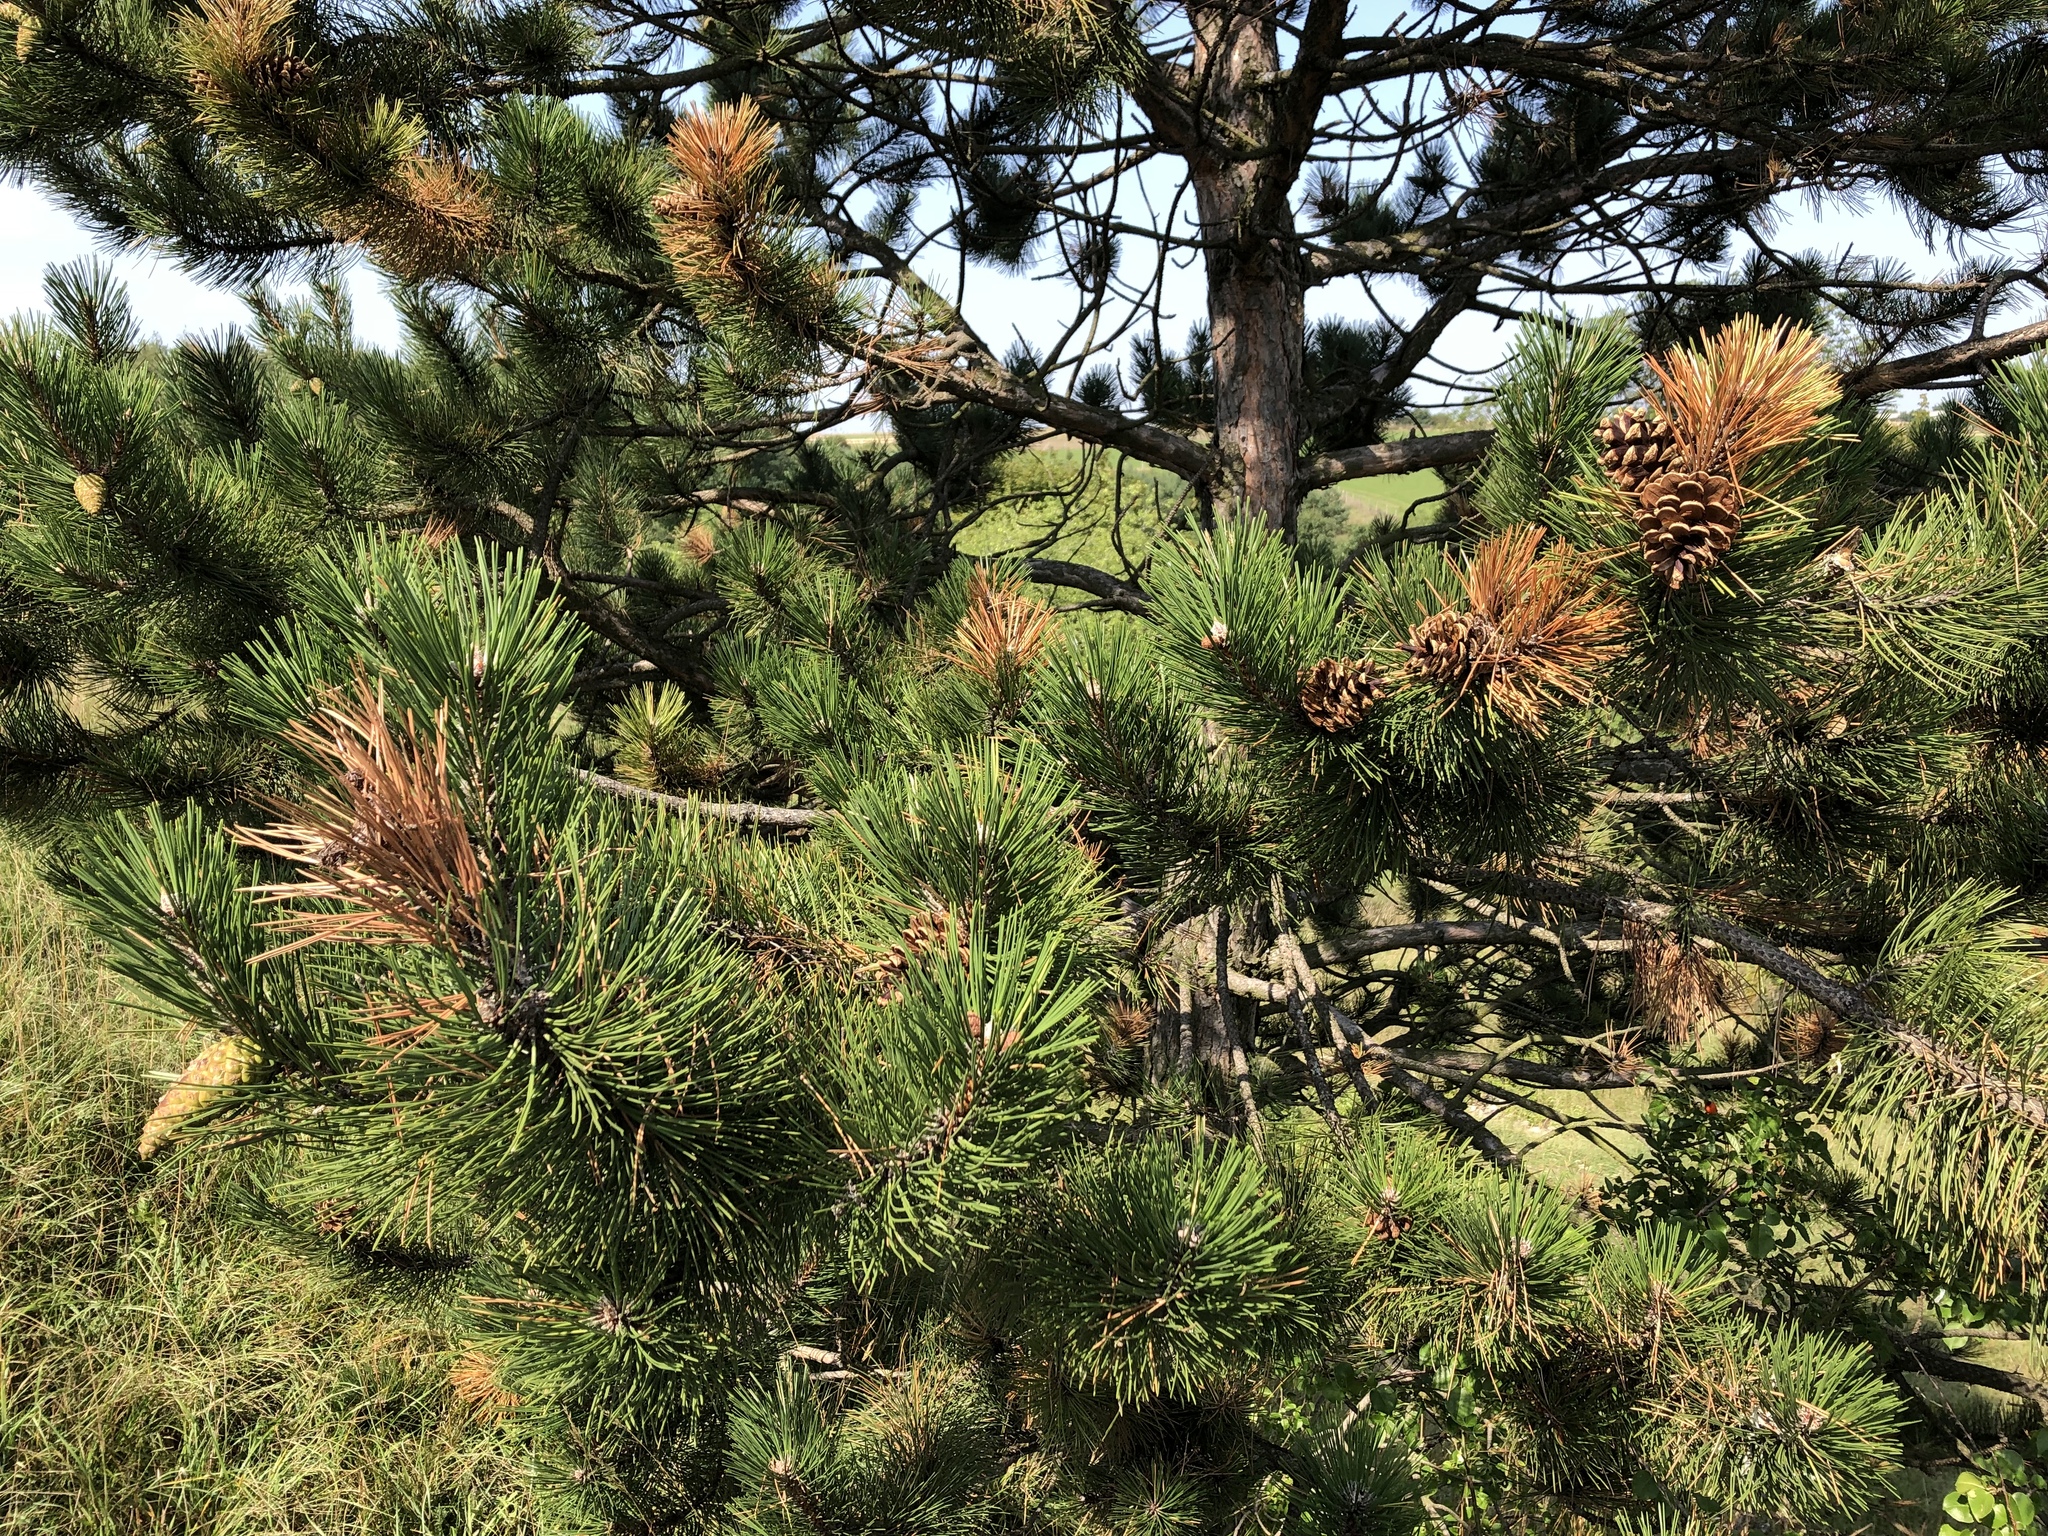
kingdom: Plantae
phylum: Tracheophyta
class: Pinopsida
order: Pinales
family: Pinaceae
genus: Pinus
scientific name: Pinus nigra
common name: Austrian pine
